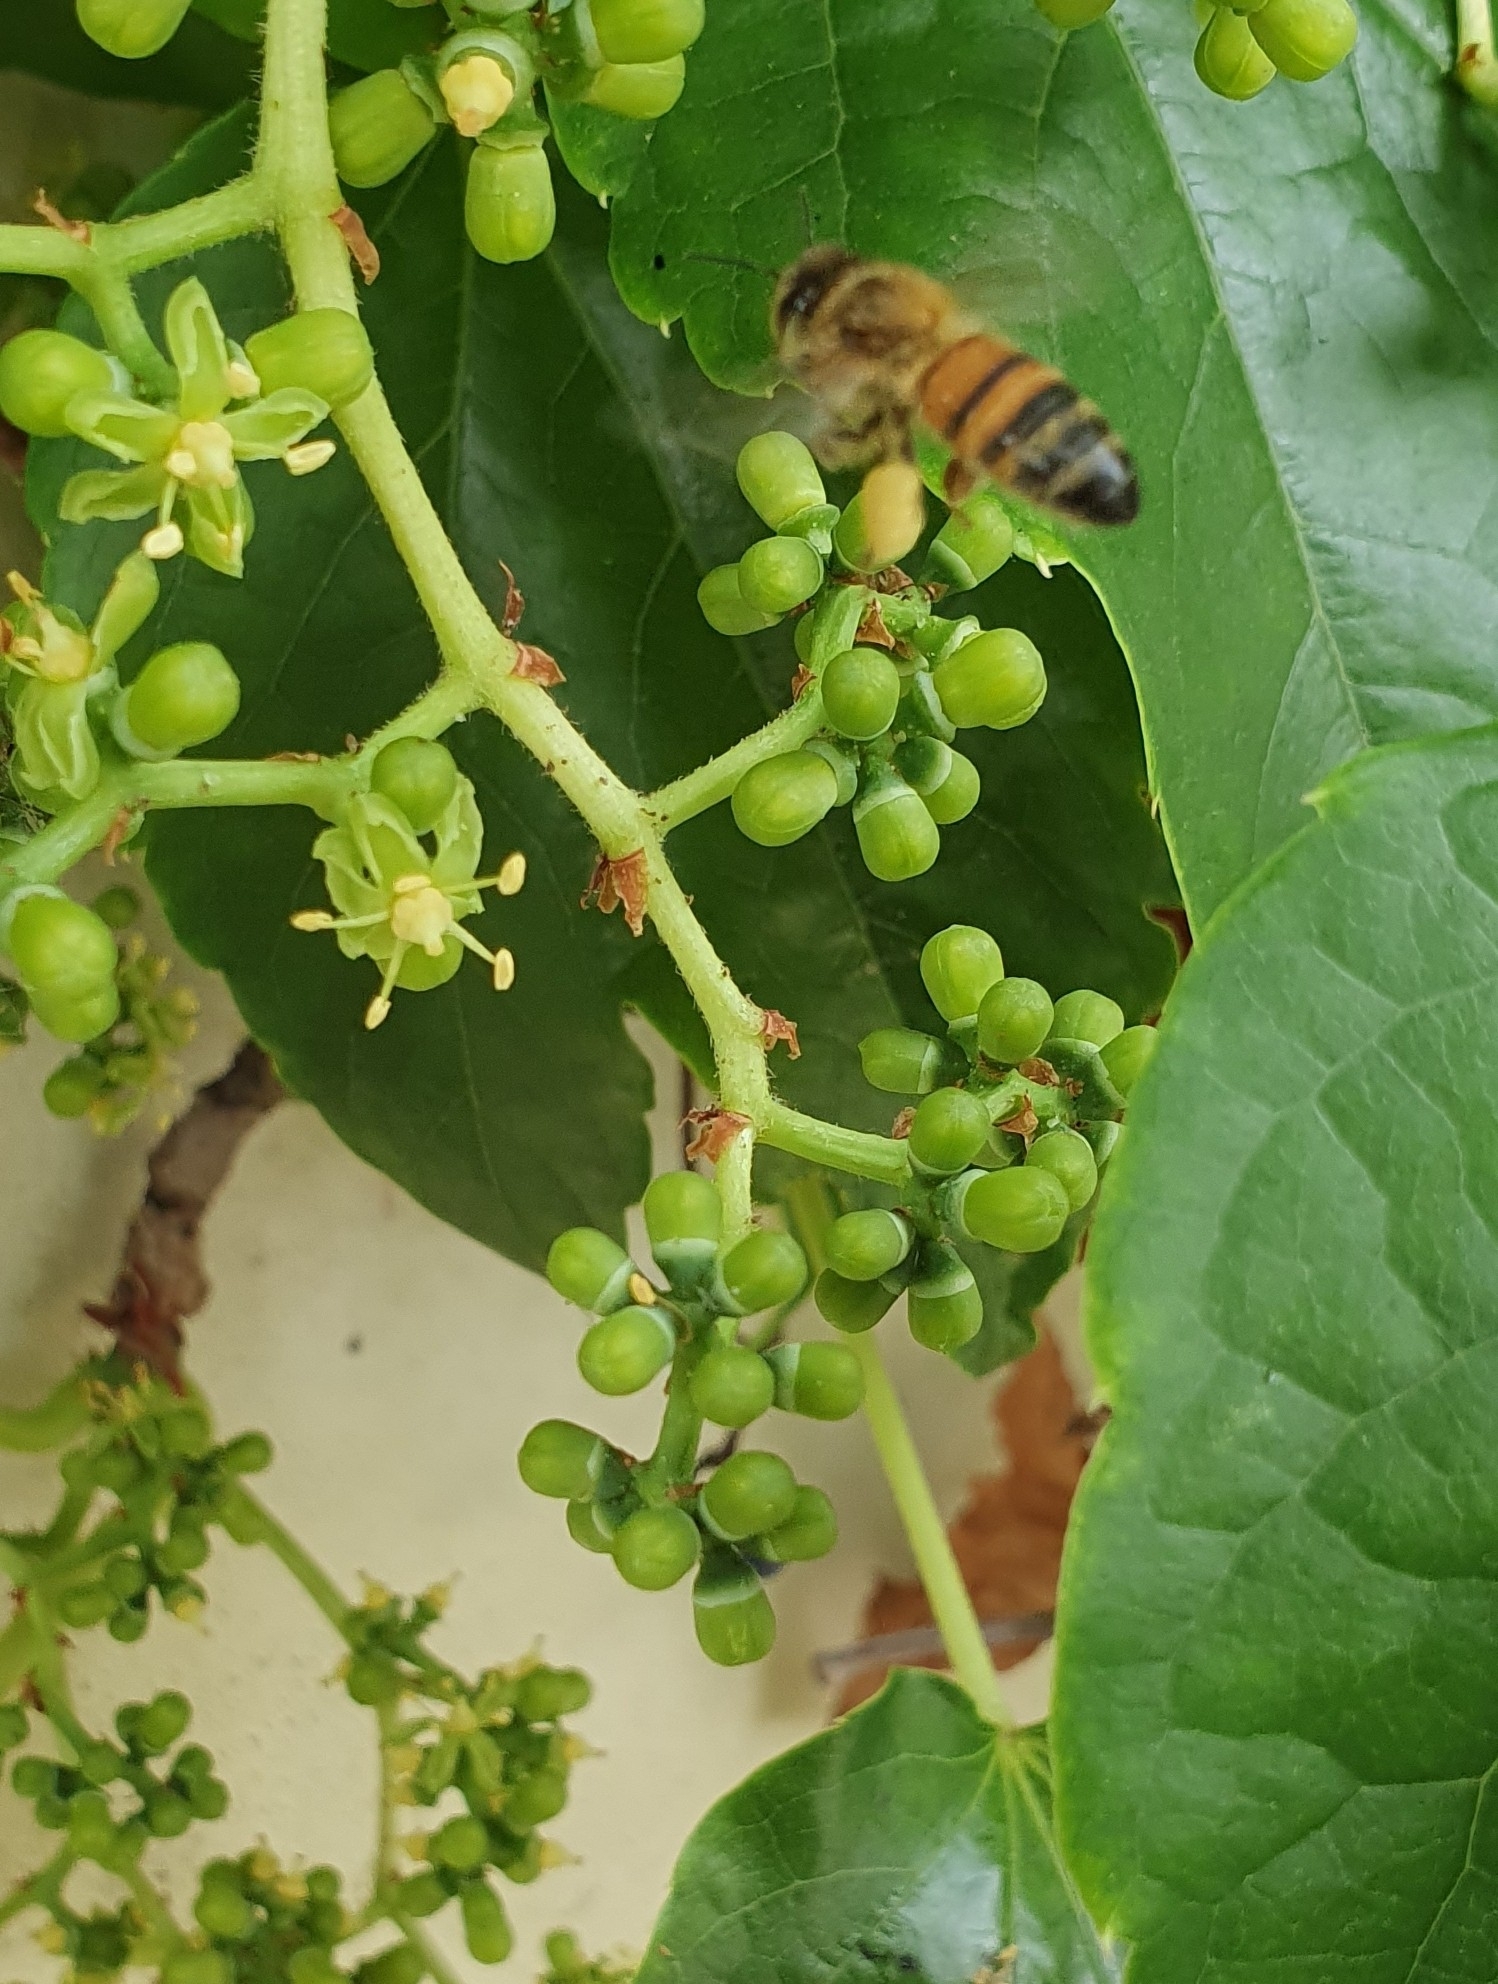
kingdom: Animalia
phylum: Arthropoda
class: Insecta
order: Hymenoptera
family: Apidae
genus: Apis
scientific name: Apis mellifera
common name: Honey bee
